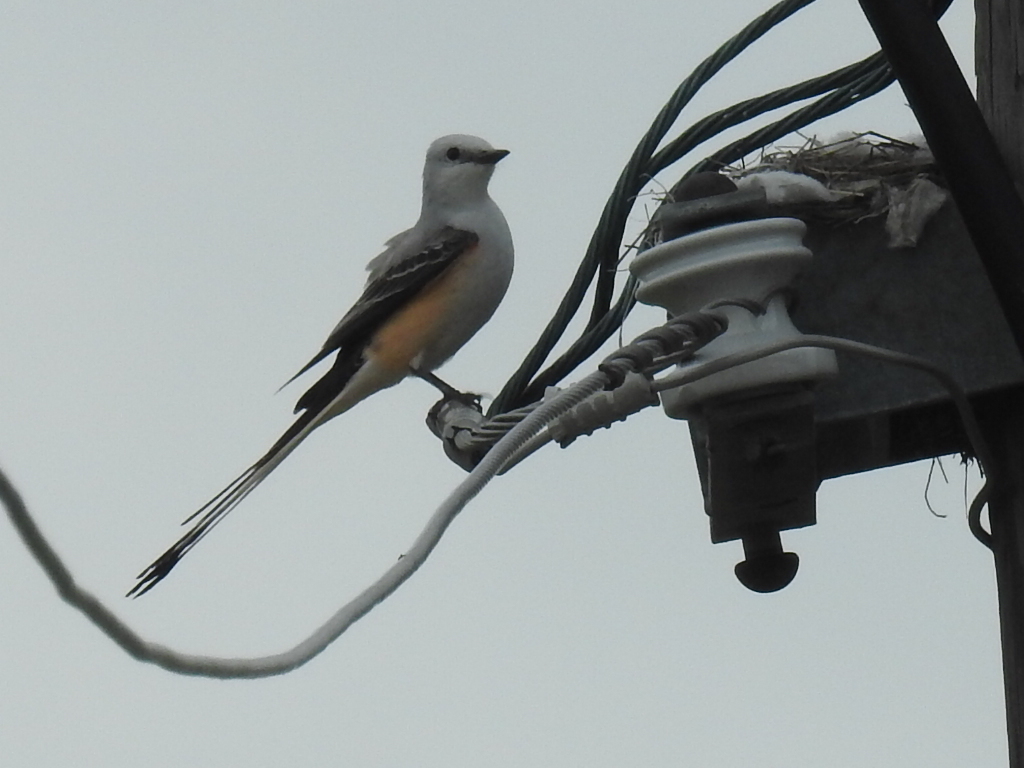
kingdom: Animalia
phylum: Chordata
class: Aves
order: Passeriformes
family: Tyrannidae
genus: Tyrannus
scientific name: Tyrannus forficatus
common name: Scissor-tailed flycatcher
